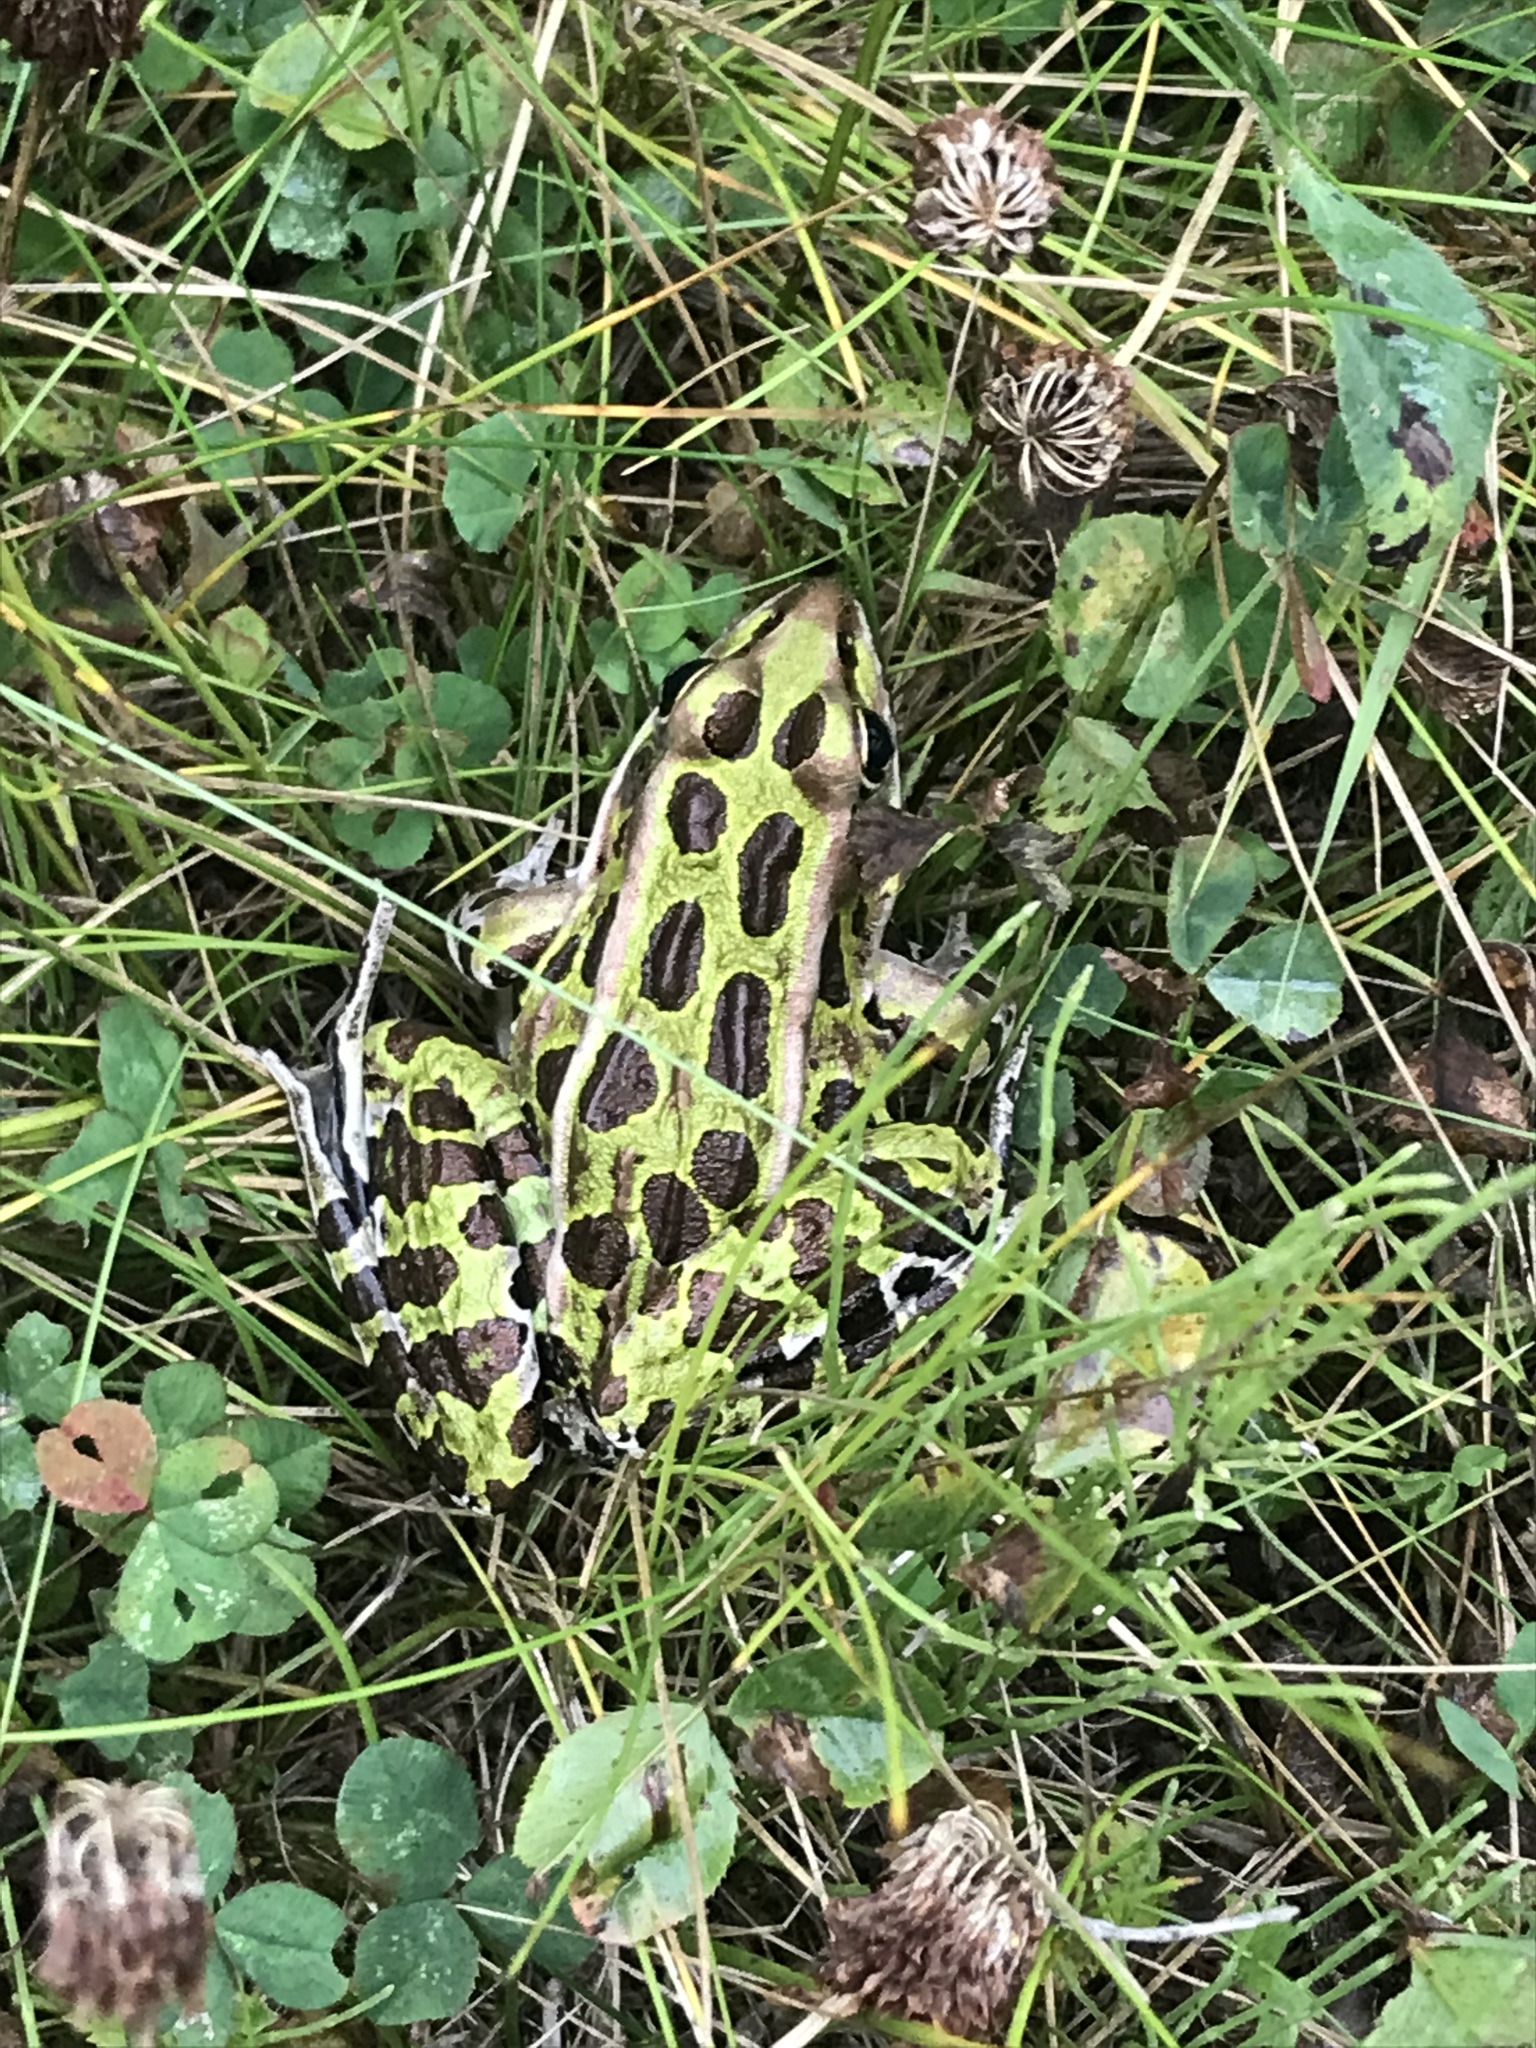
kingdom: Animalia
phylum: Chordata
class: Amphibia
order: Anura
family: Ranidae
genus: Lithobates
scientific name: Lithobates pipiens
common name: Northern leopard frog
